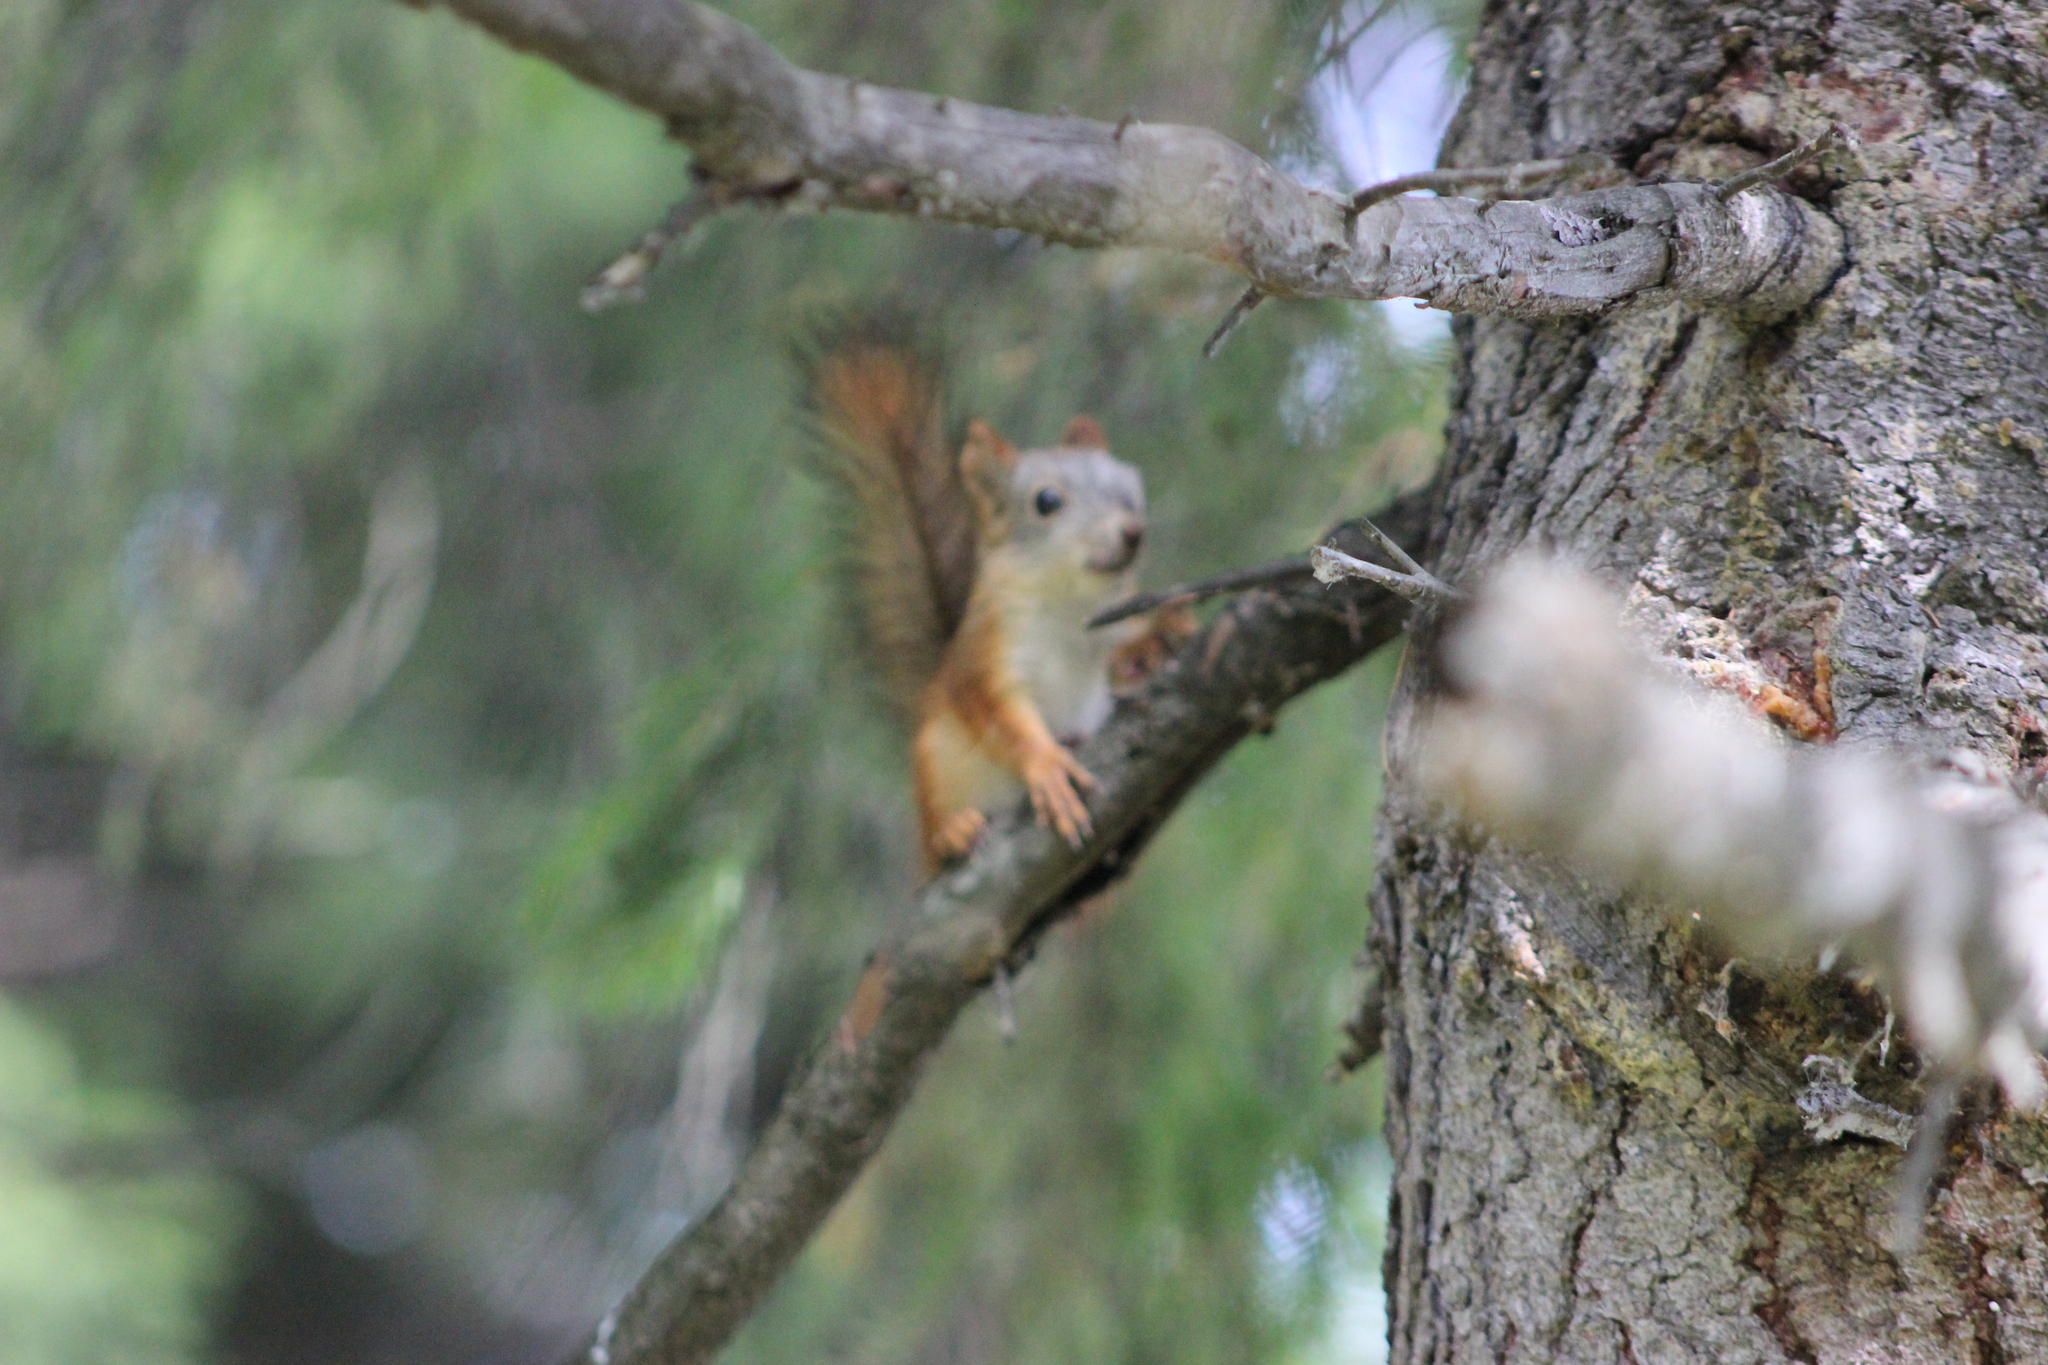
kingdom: Animalia
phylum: Chordata
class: Mammalia
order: Rodentia
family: Sciuridae
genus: Sciurus
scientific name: Sciurus vulgaris
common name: Eurasian red squirrel
